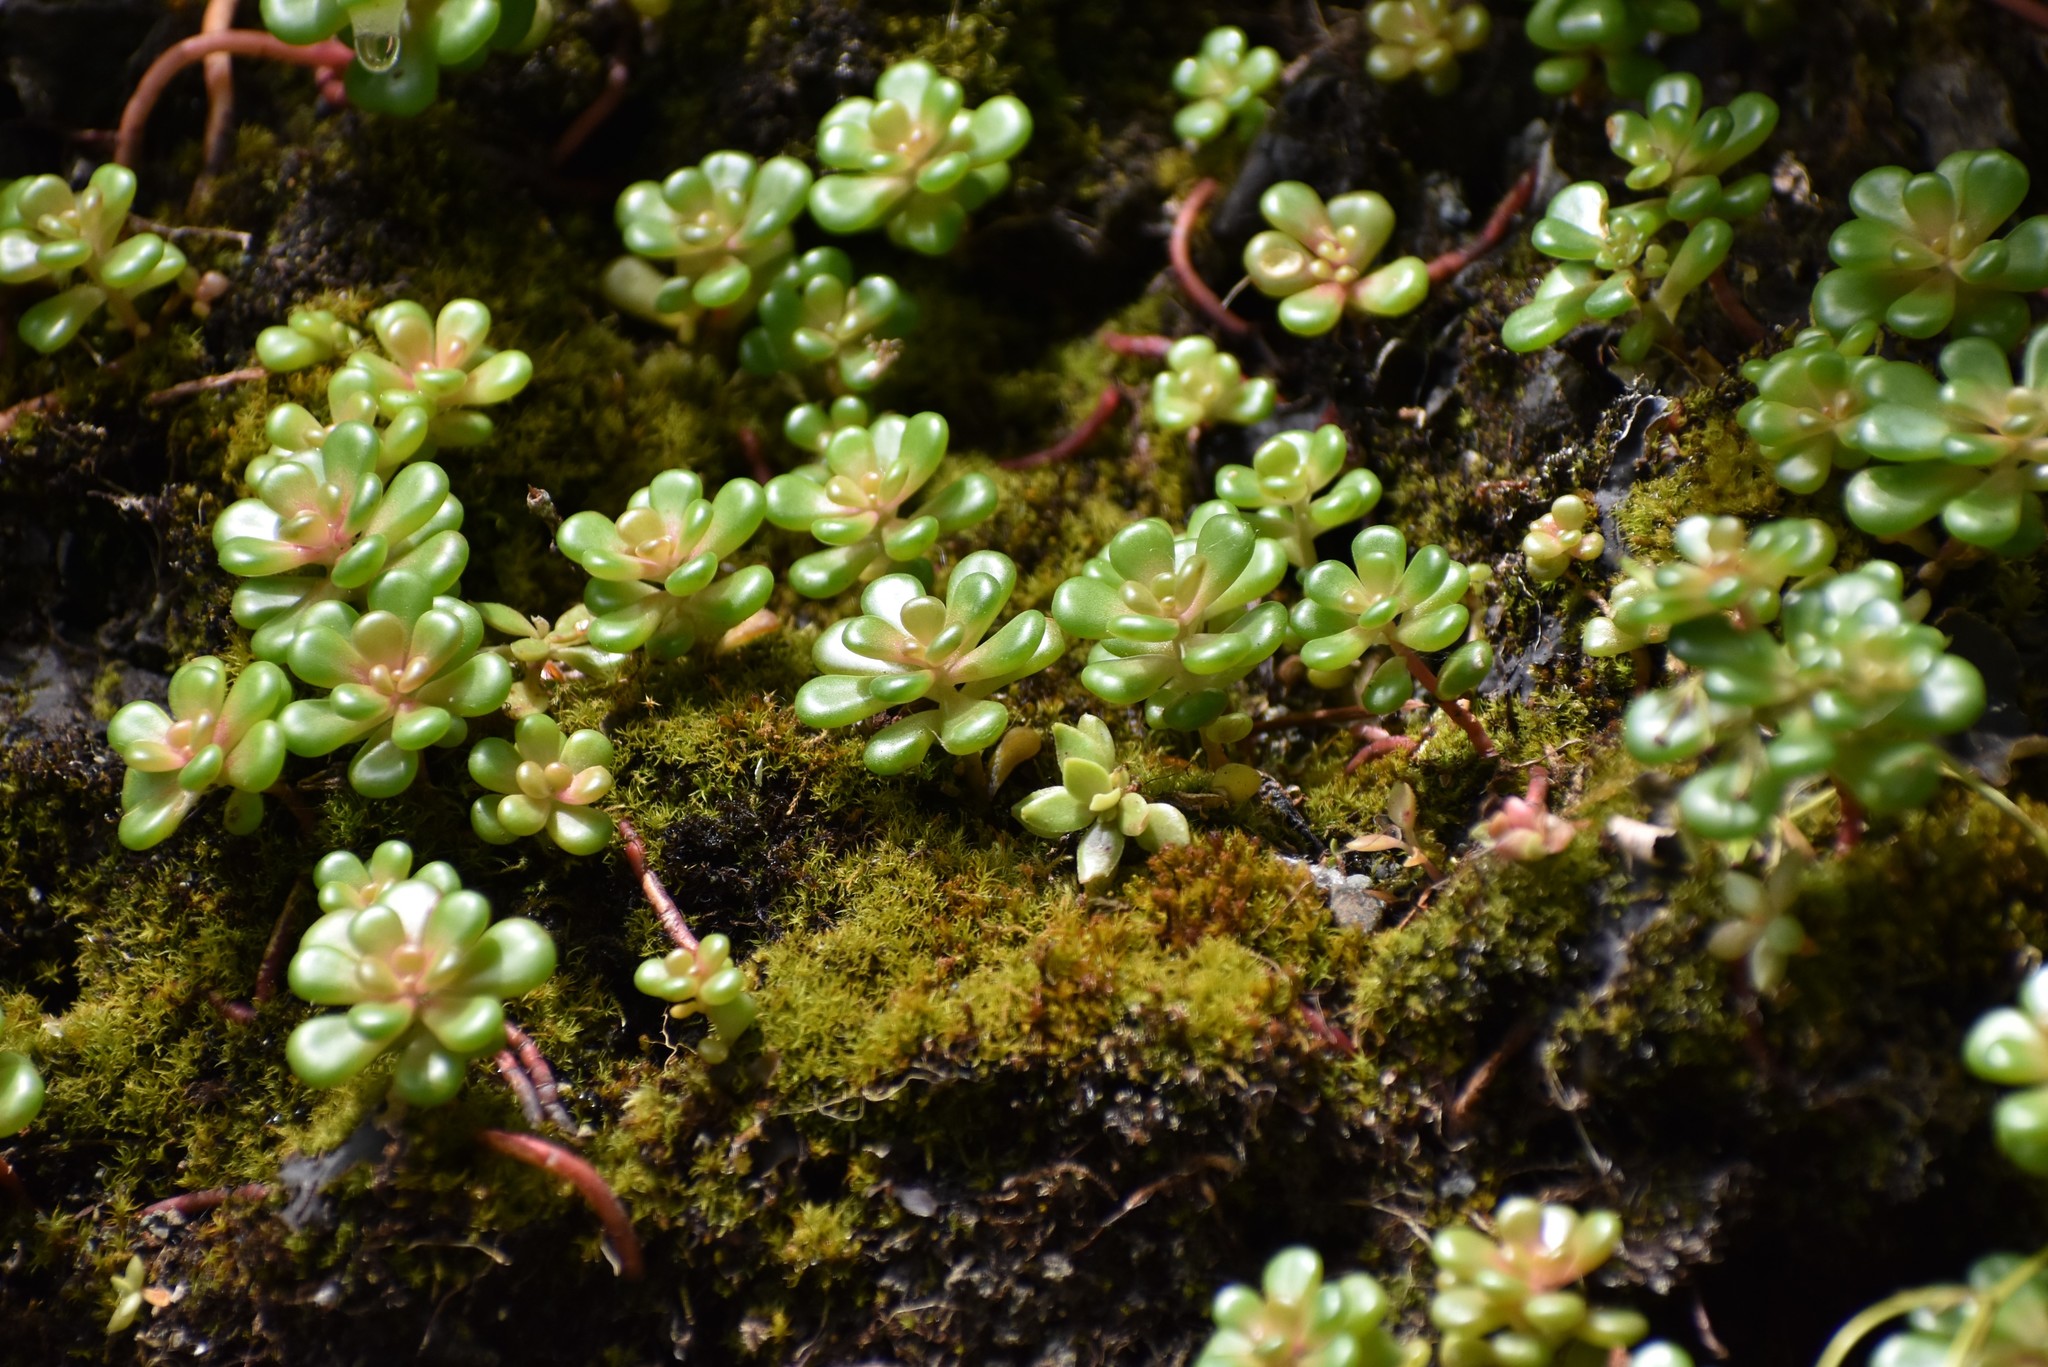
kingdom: Plantae
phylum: Tracheophyta
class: Magnoliopsida
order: Saxifragales
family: Crassulaceae
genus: Sedum
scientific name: Sedum oreganum
